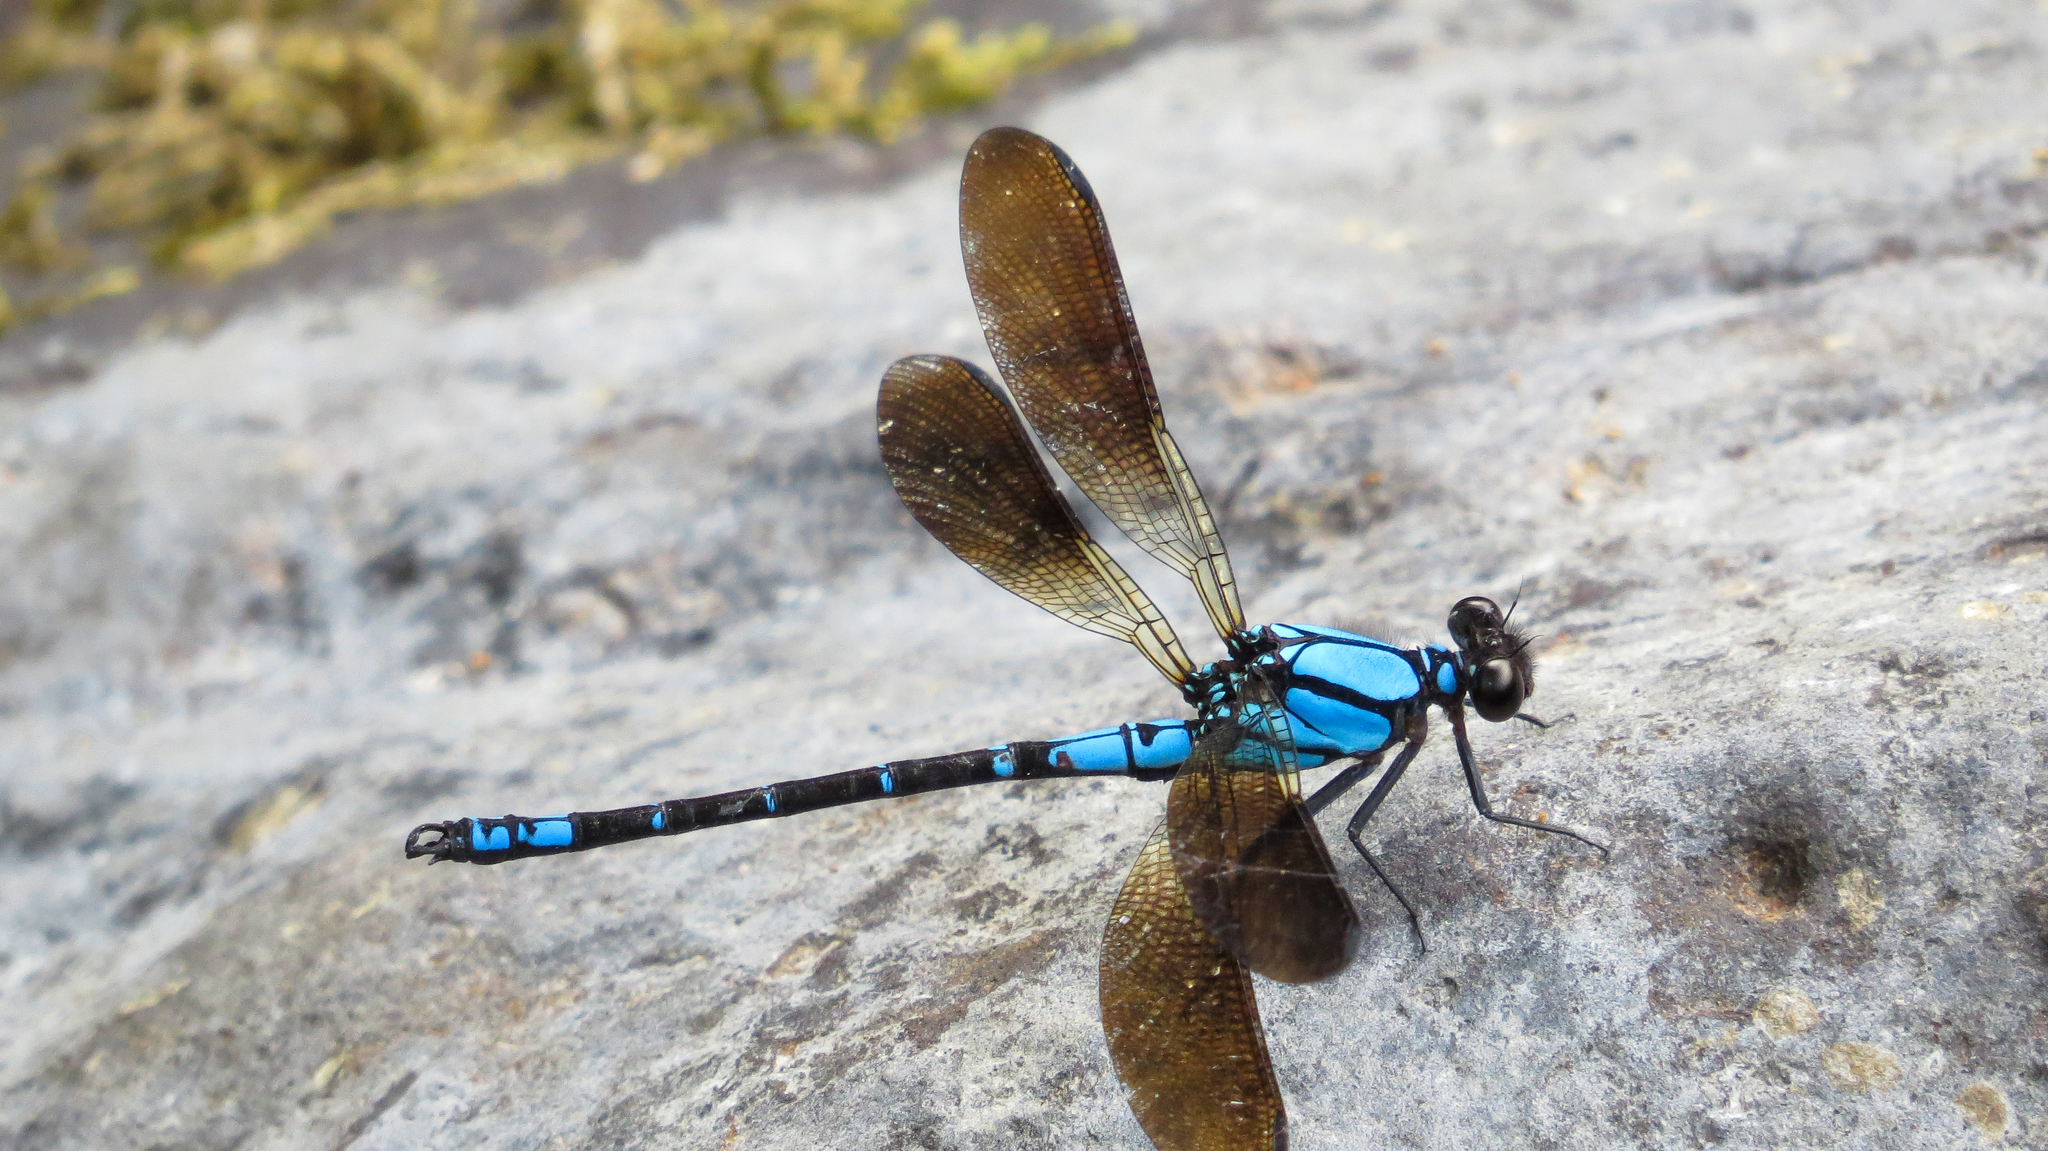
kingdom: Animalia
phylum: Arthropoda
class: Insecta
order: Odonata
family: Lestoideidae
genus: Diphlebia
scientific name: Diphlebia coerulescens
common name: Sapphire rockmaster
